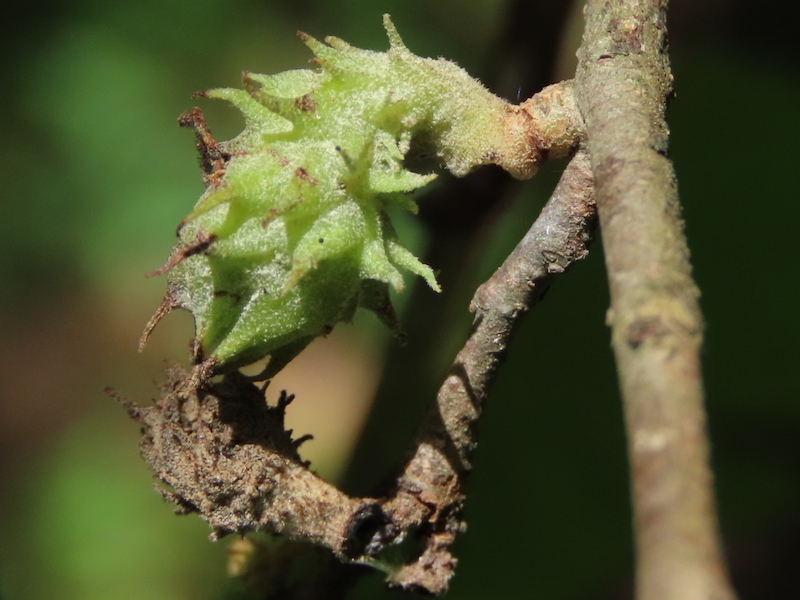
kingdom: Animalia
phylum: Arthropoda
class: Insecta
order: Hemiptera
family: Aphididae
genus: Hamamelistes
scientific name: Hamamelistes spinosus
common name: Witch hazel gall aphid
